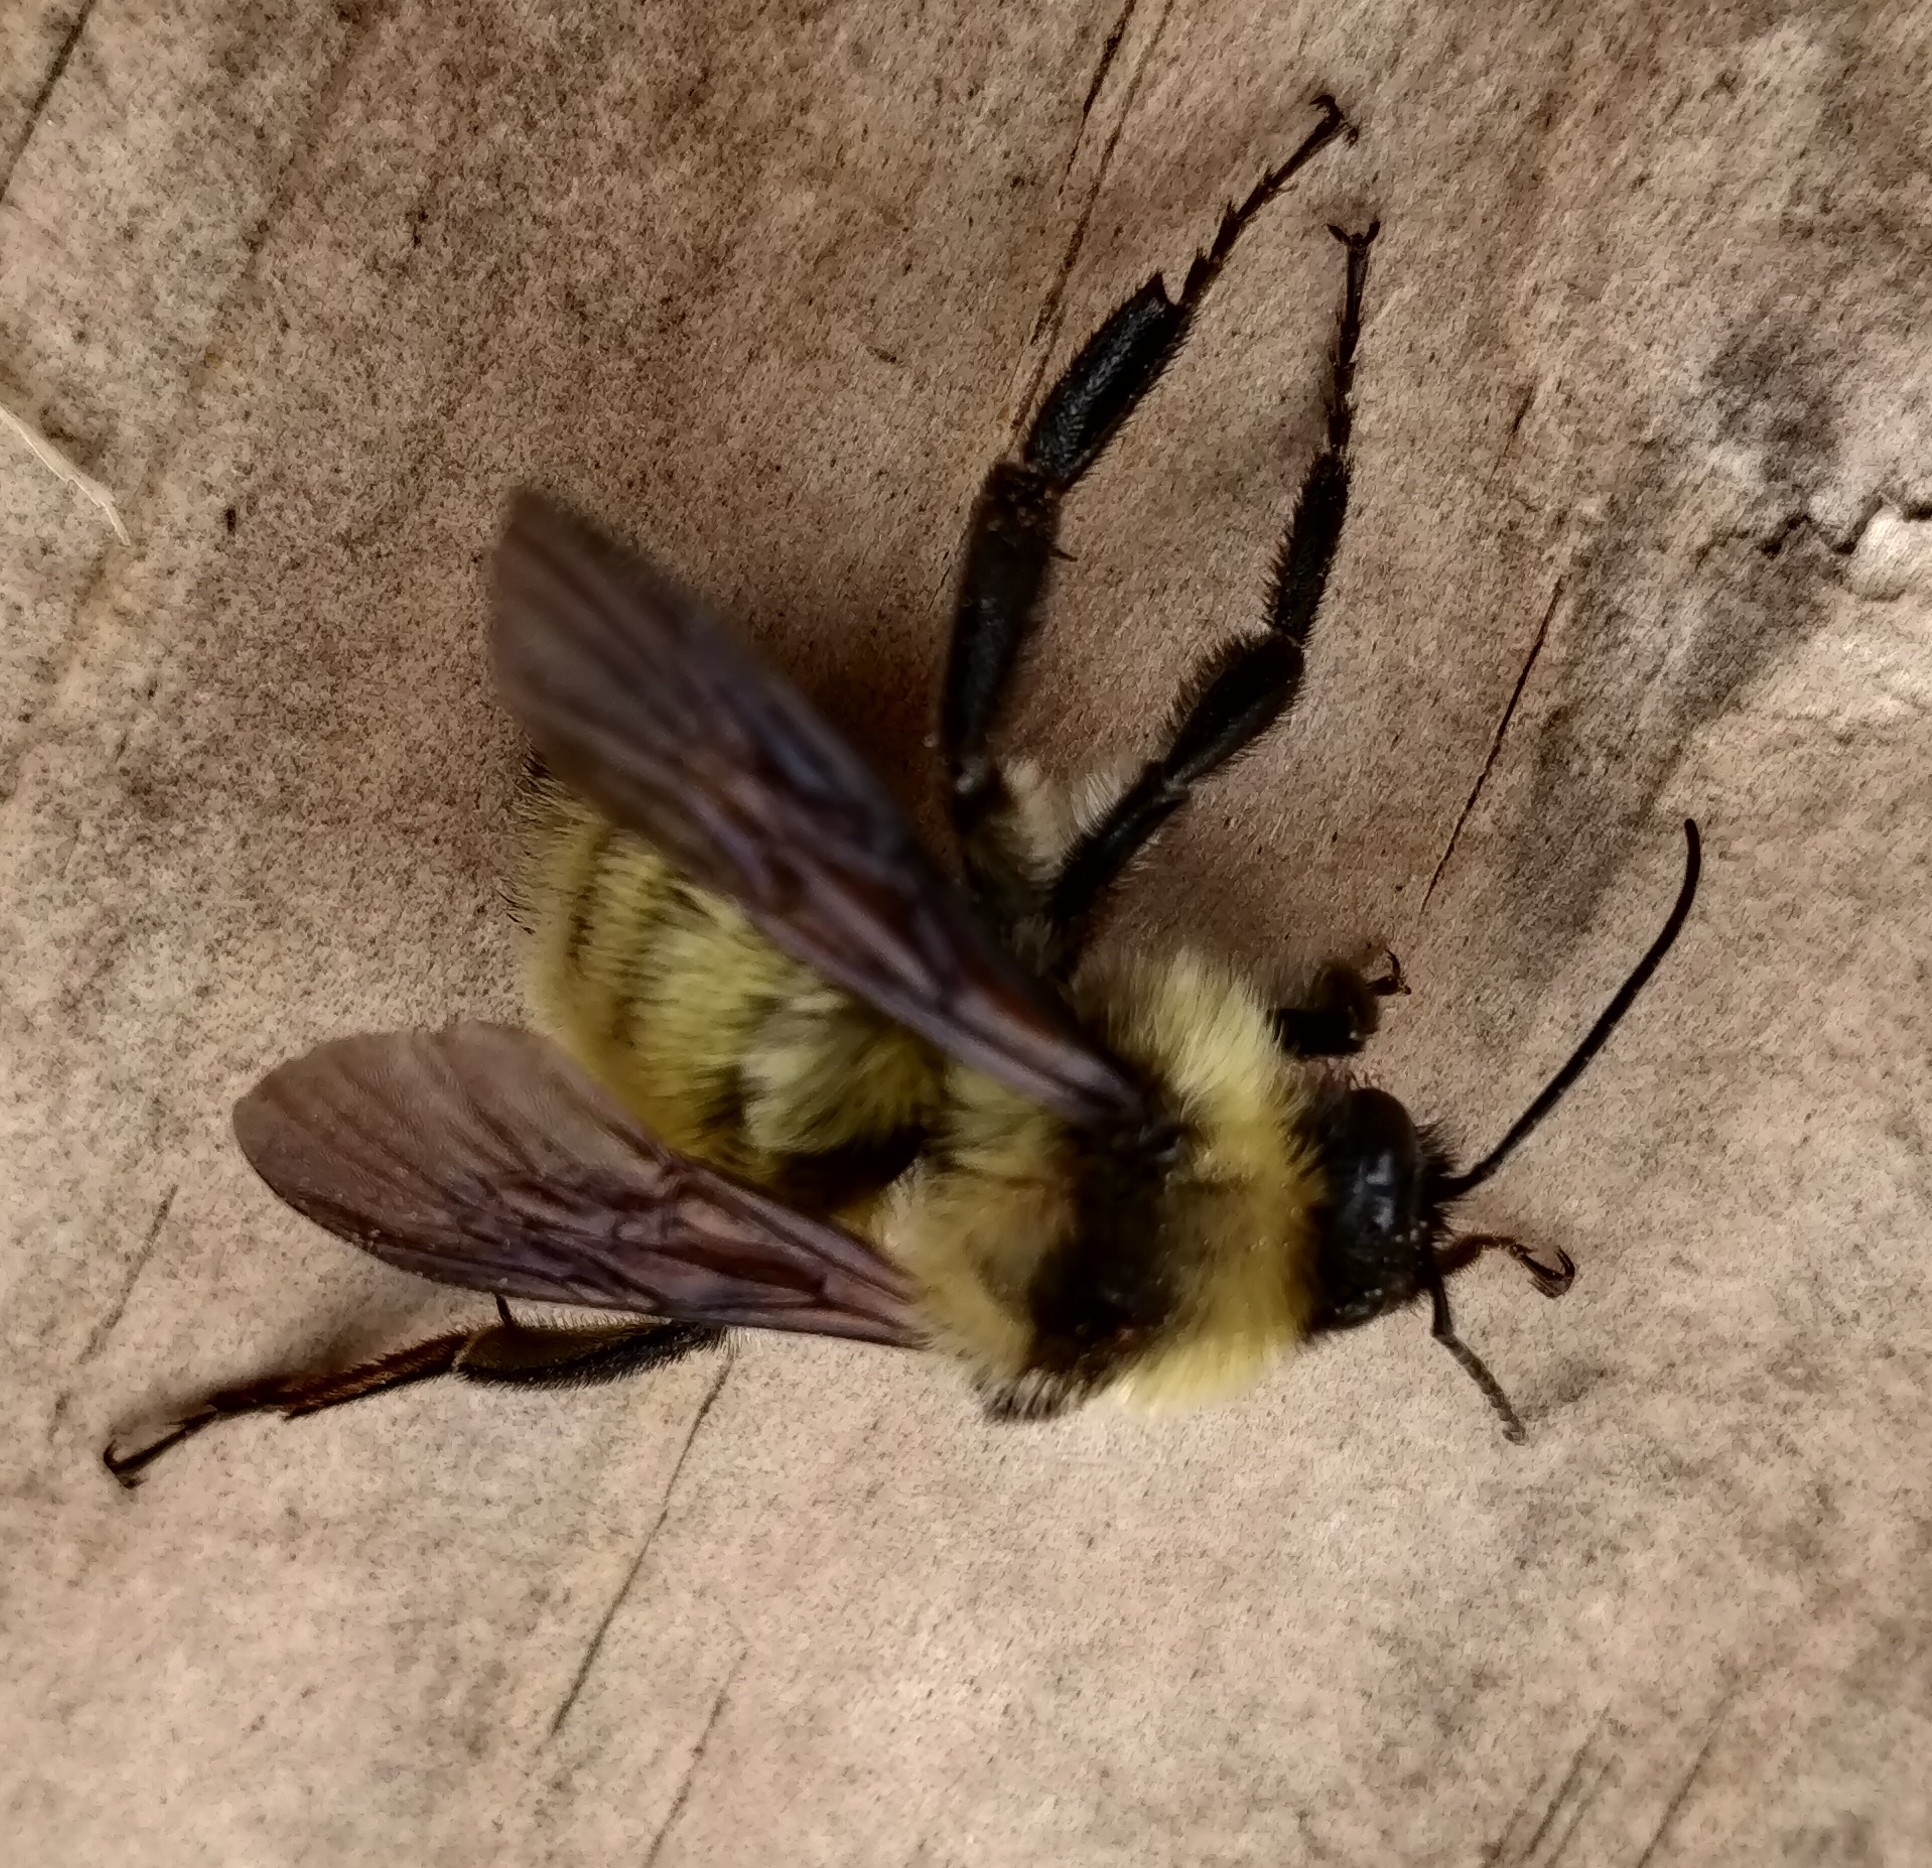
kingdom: Animalia
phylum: Arthropoda
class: Insecta
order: Hymenoptera
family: Apidae
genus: Bombus
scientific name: Bombus fervidus
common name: Yellow bumble bee
